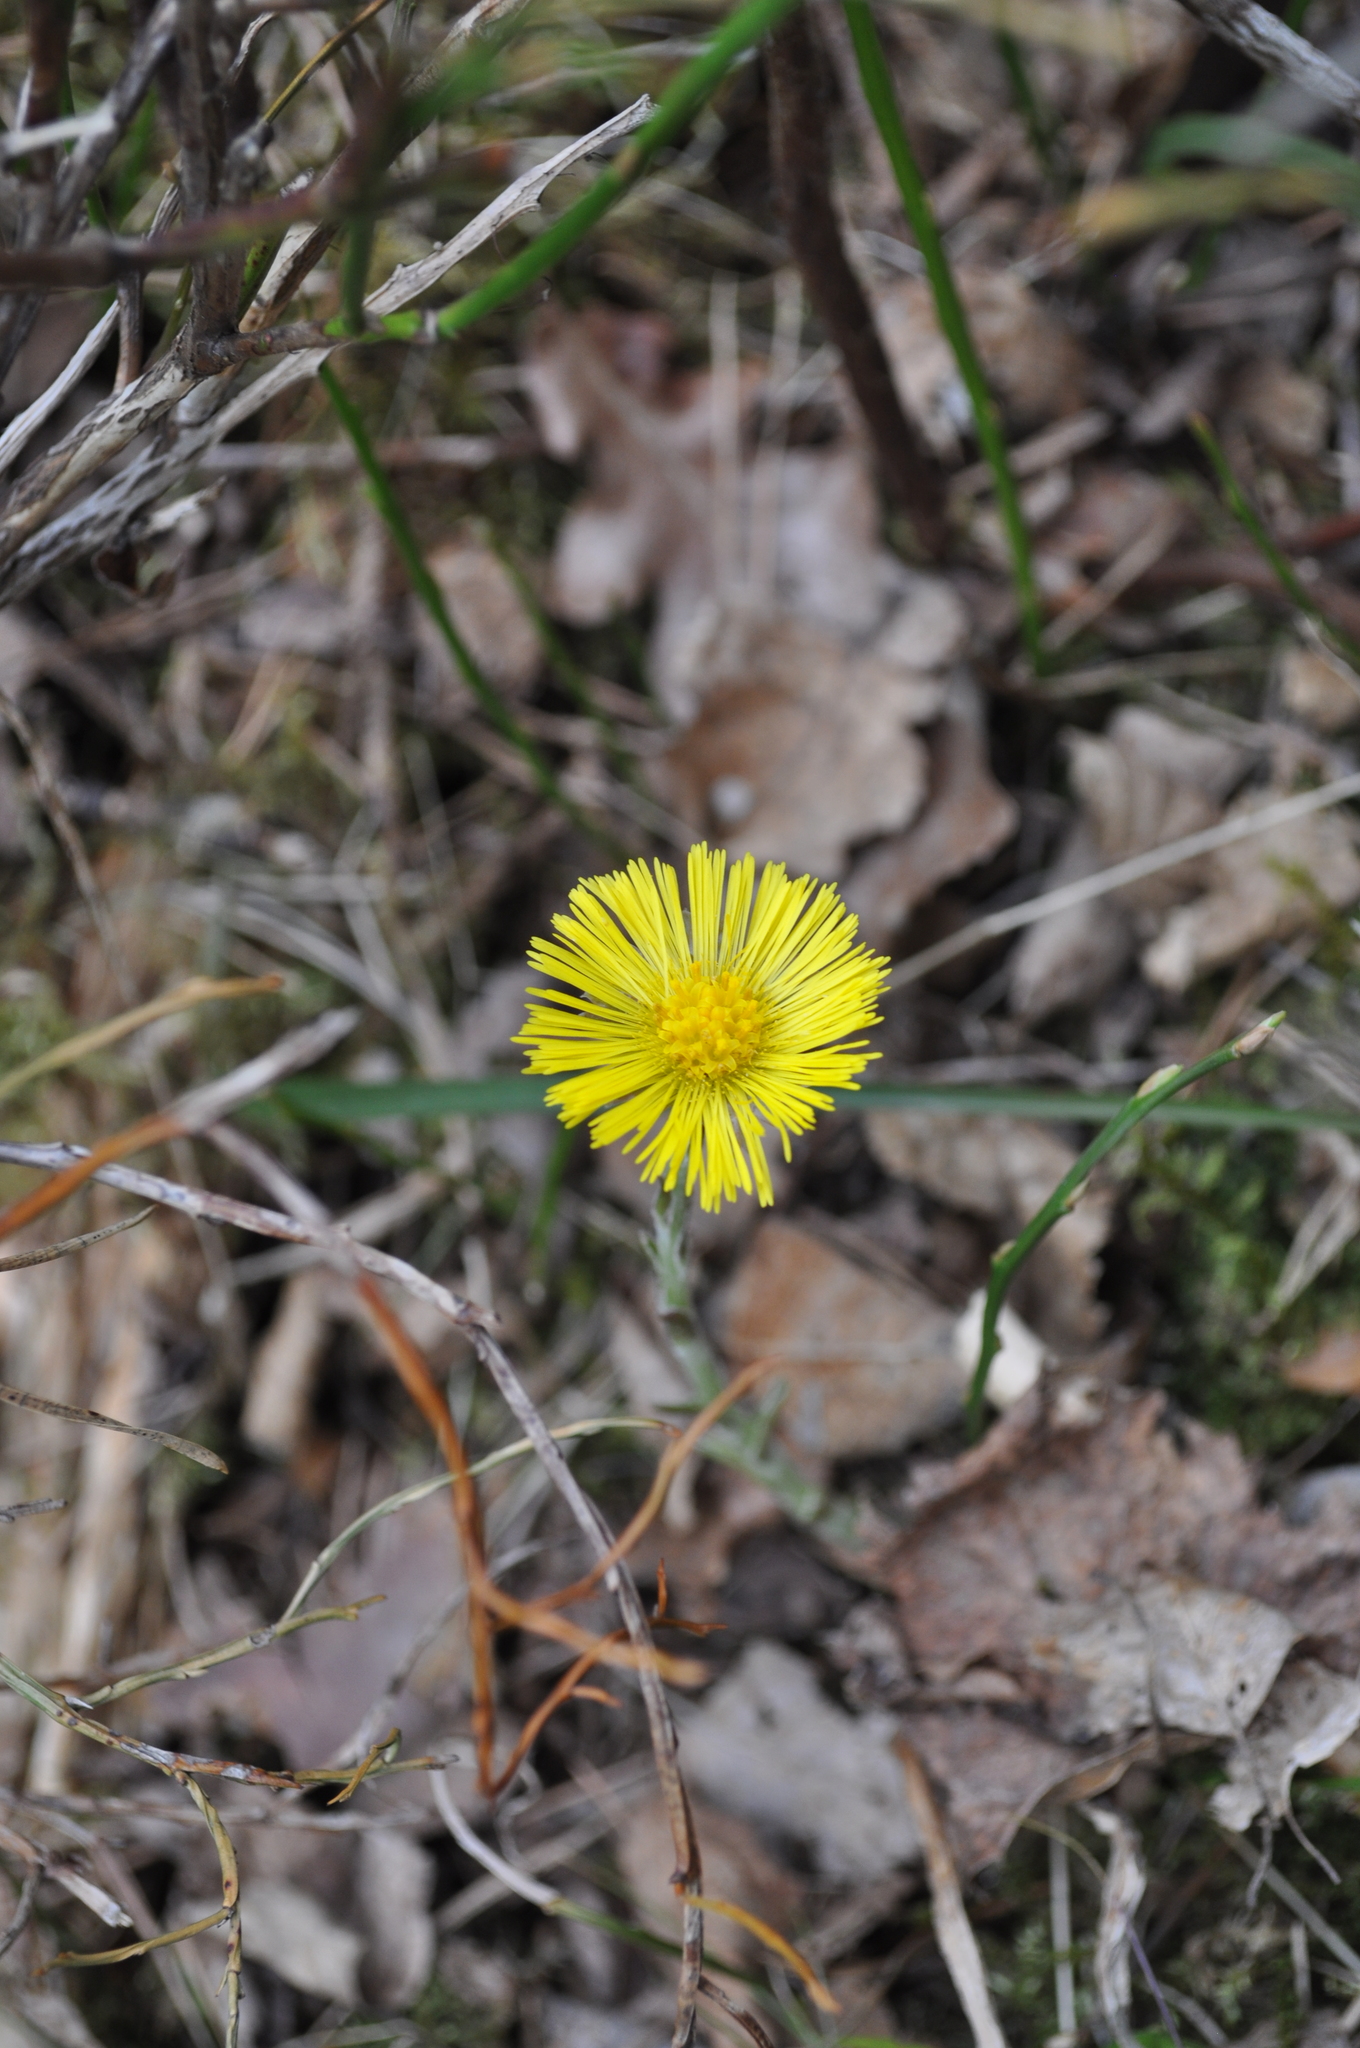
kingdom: Plantae
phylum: Tracheophyta
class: Magnoliopsida
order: Asterales
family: Asteraceae
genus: Tussilago
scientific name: Tussilago farfara
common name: Coltsfoot
